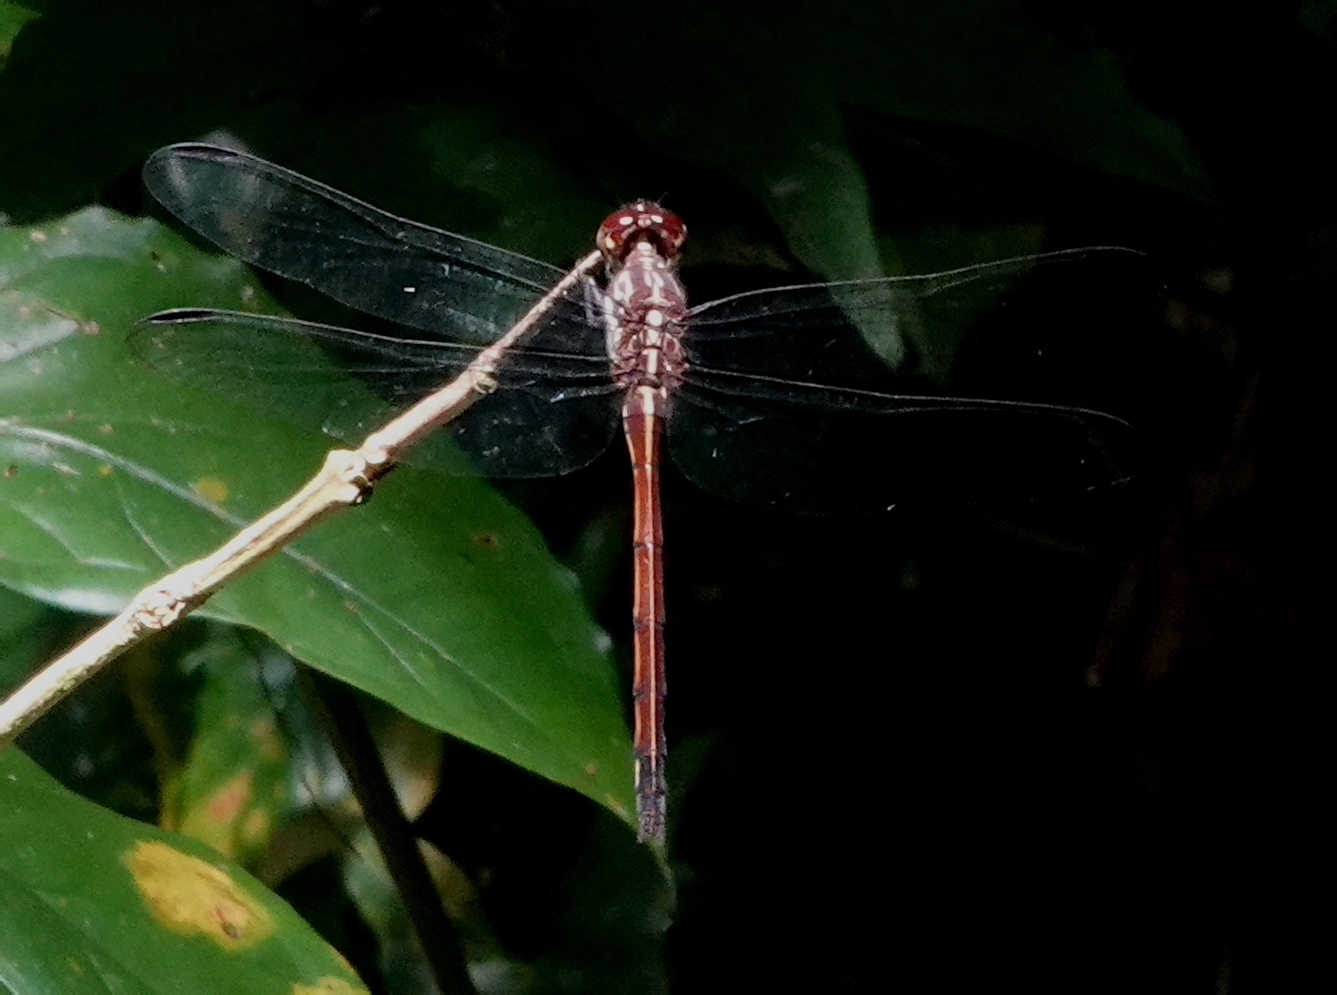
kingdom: Animalia
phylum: Arthropoda
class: Insecta
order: Odonata
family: Libellulidae
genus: Orthemis
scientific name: Orthemis levis
